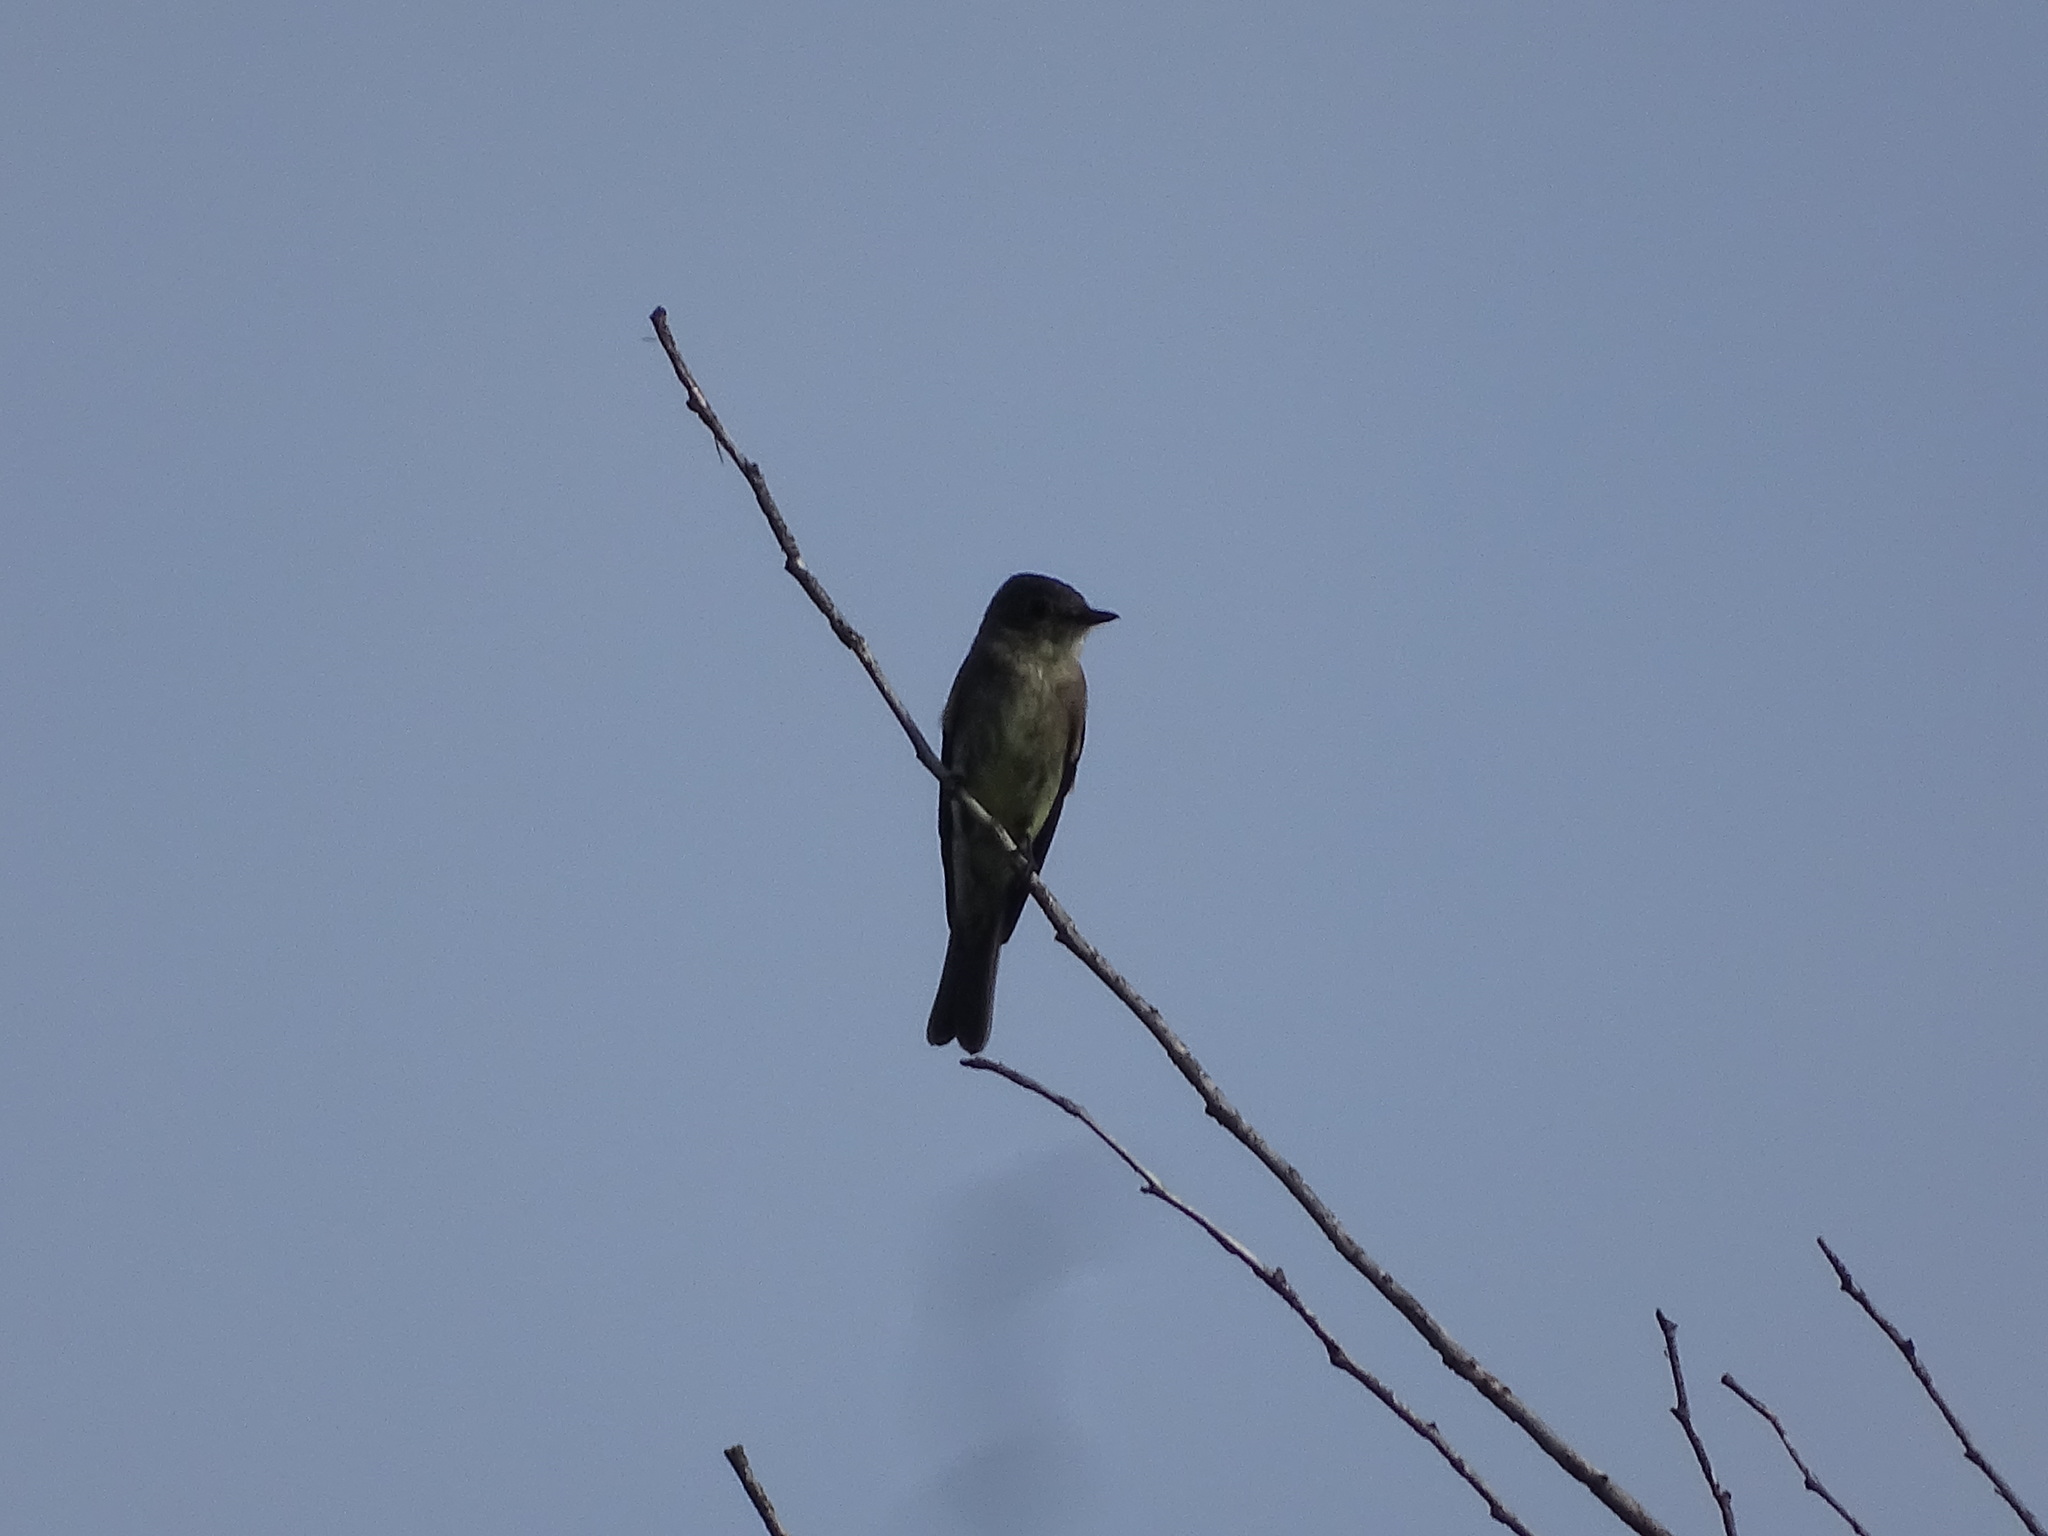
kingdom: Animalia
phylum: Chordata
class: Aves
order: Passeriformes
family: Tyrannidae
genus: Contopus
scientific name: Contopus virens
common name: Eastern wood-pewee
